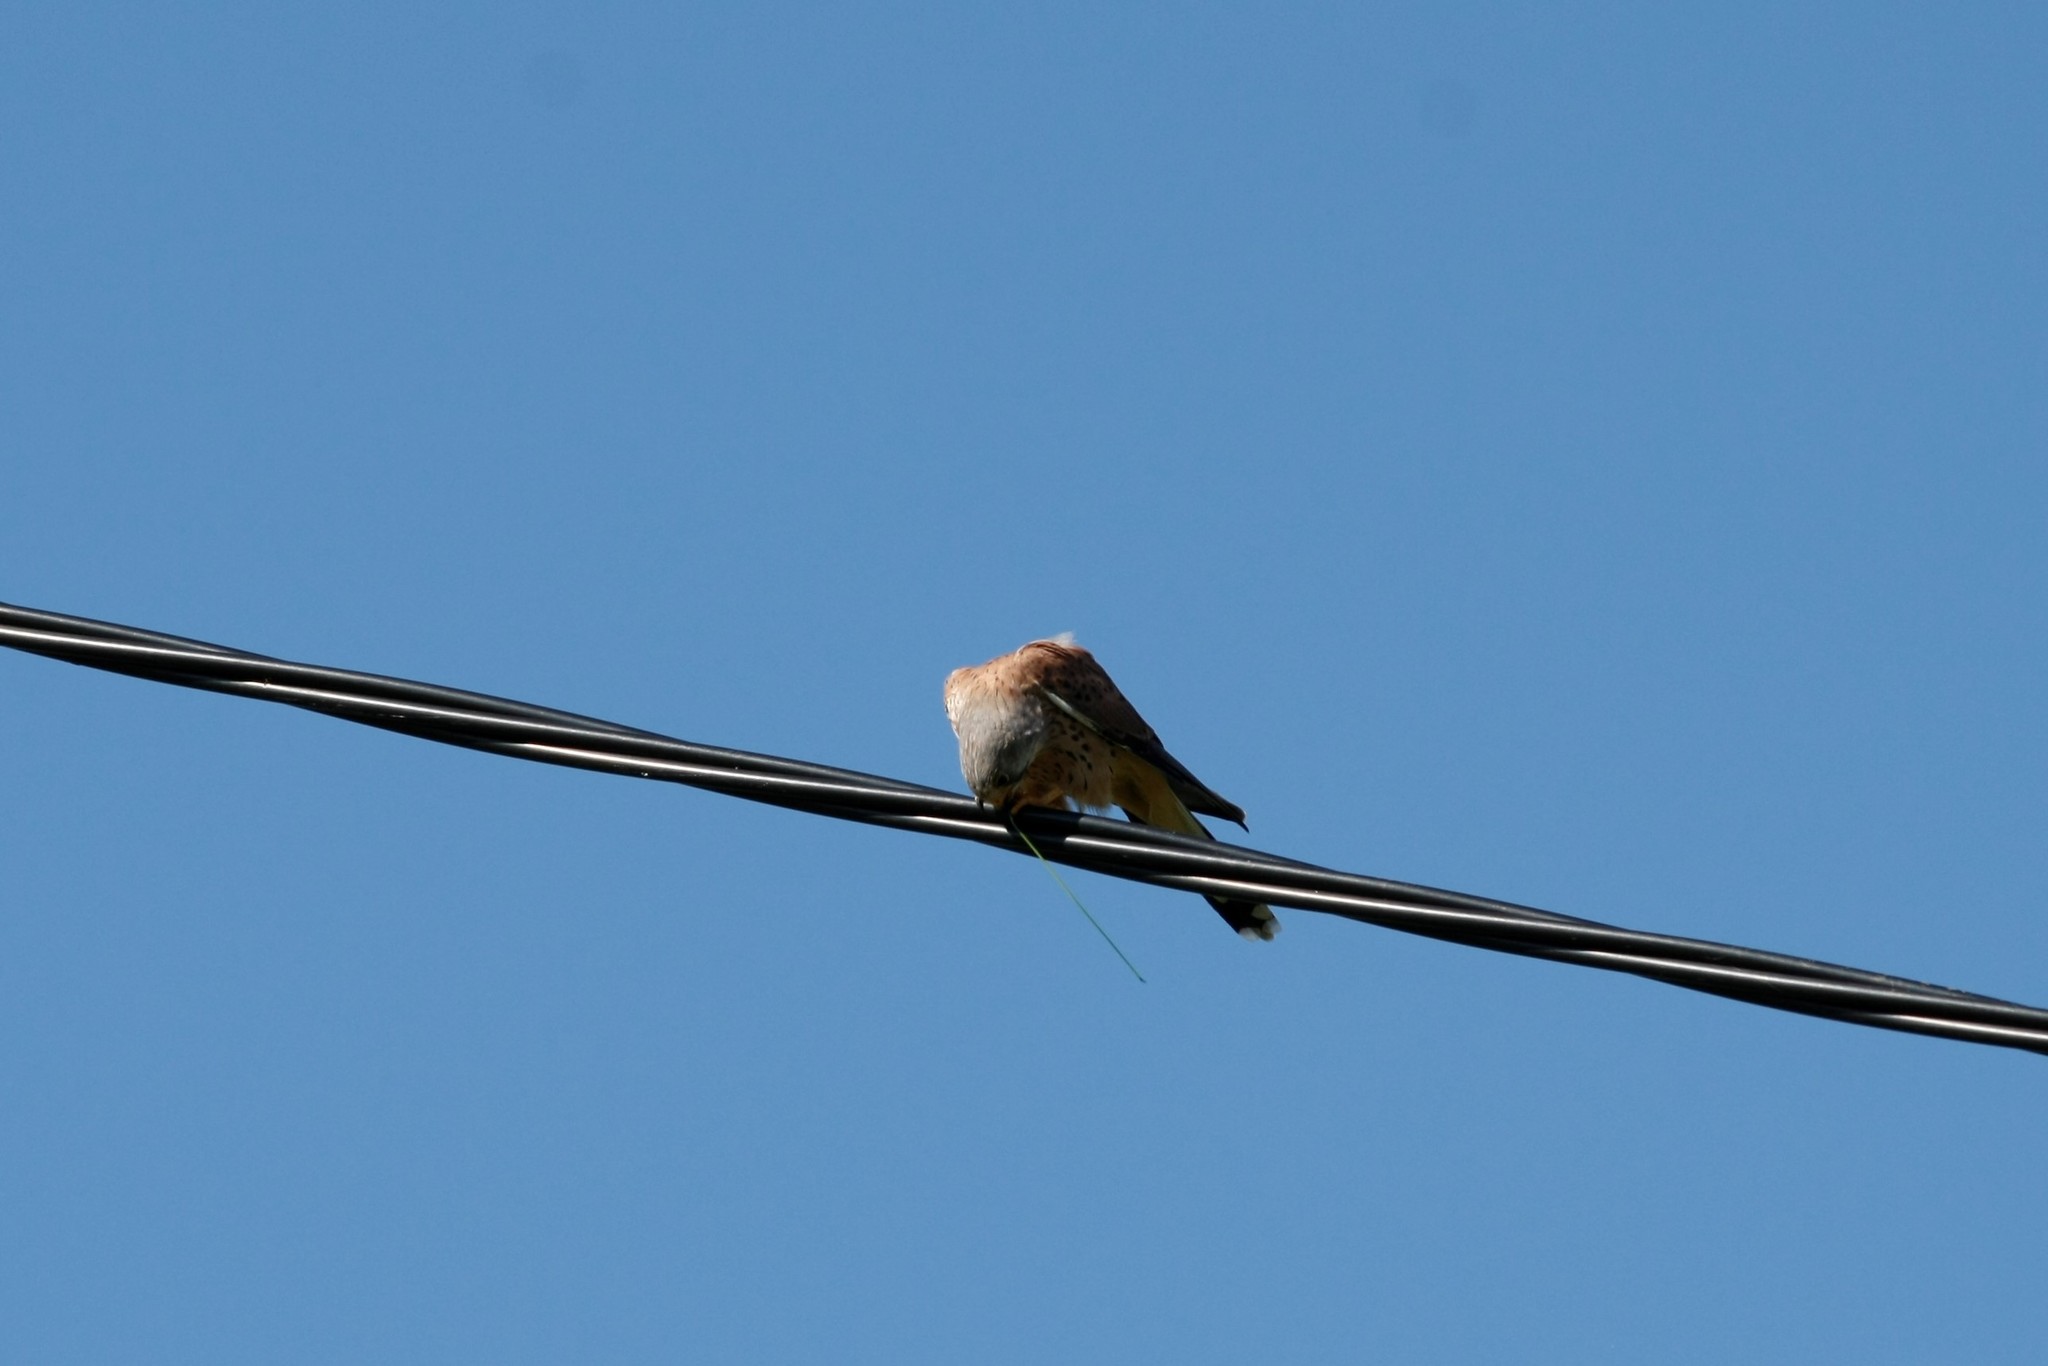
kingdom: Animalia
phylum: Chordata
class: Aves
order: Falconiformes
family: Falconidae
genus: Falco
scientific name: Falco tinnunculus
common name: Common kestrel
